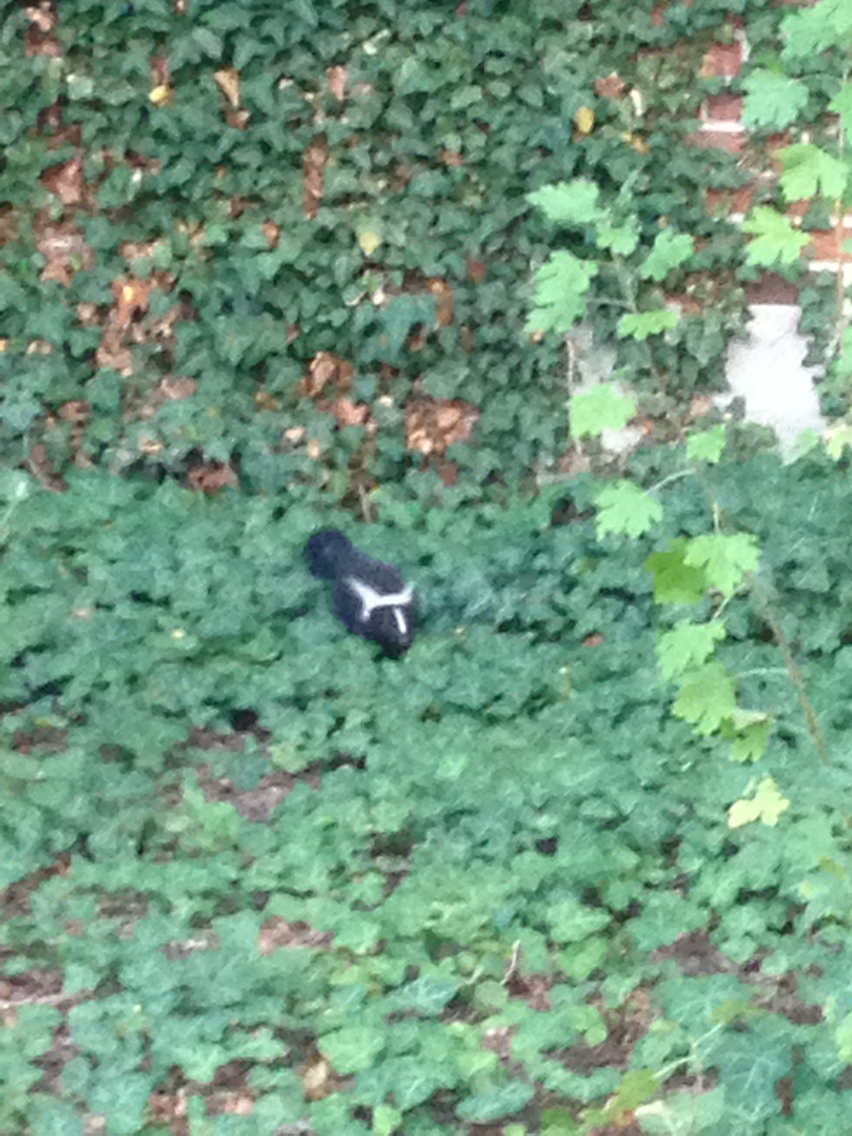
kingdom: Animalia
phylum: Chordata
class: Mammalia
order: Carnivora
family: Mephitidae
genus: Mephitis
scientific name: Mephitis mephitis
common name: Striped skunk
